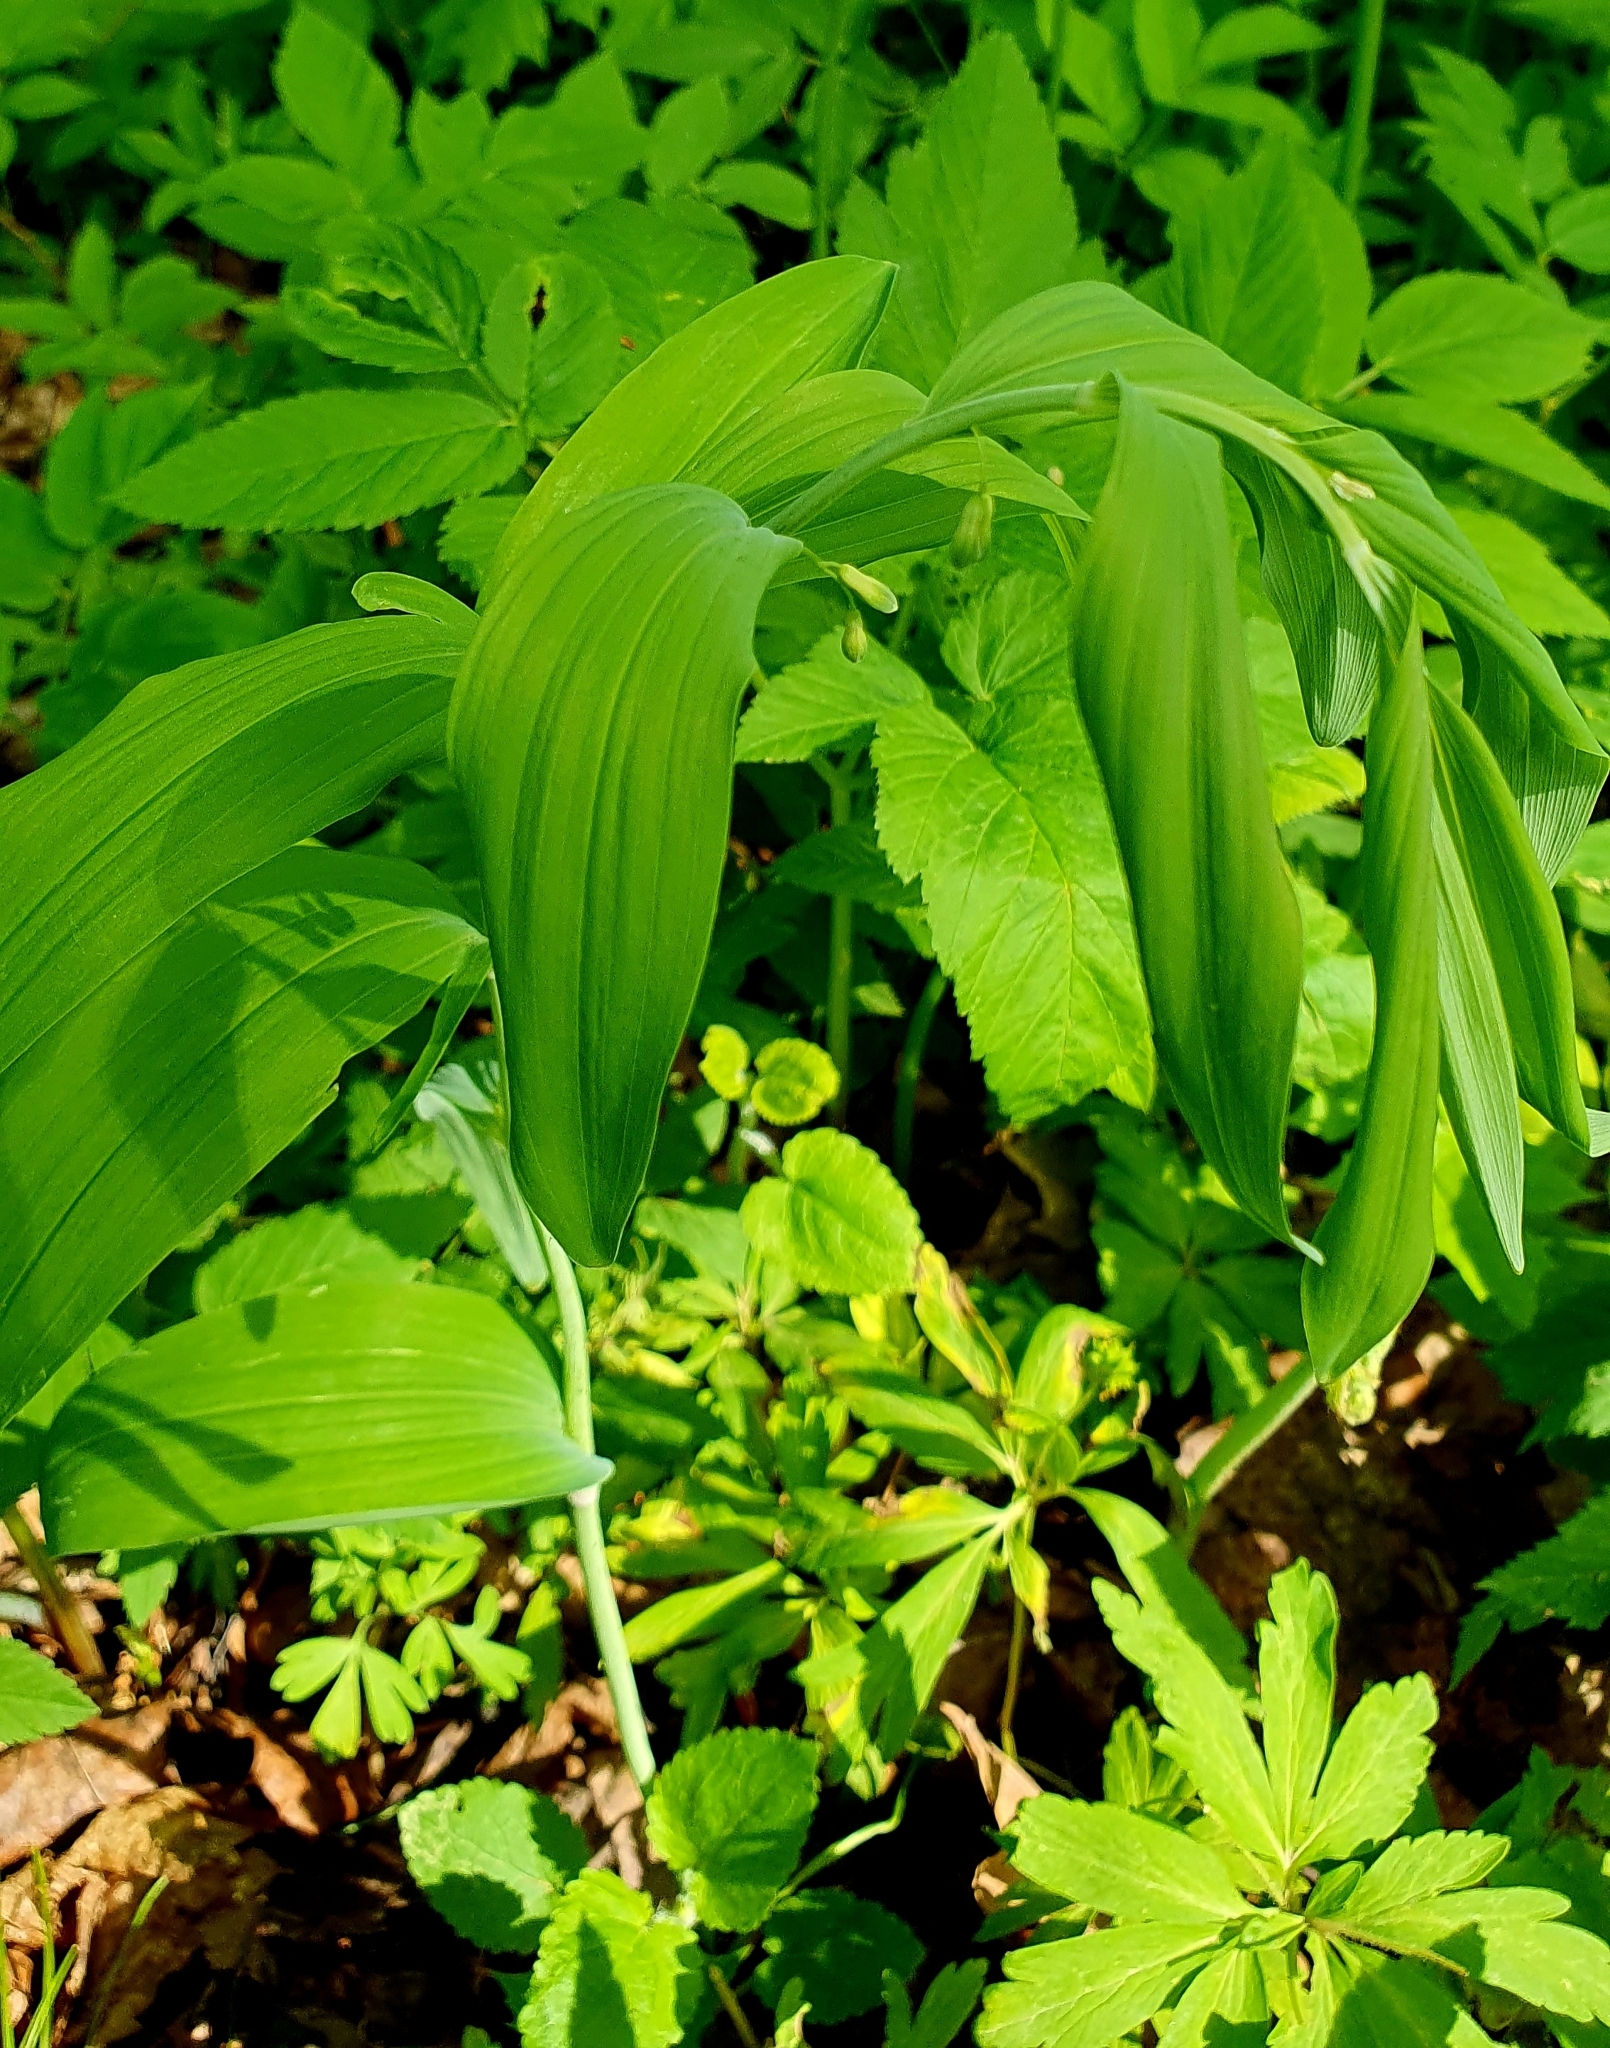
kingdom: Plantae
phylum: Tracheophyta
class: Liliopsida
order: Asparagales
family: Asparagaceae
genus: Polygonatum
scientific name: Polygonatum multiflorum
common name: Solomon's-seal
